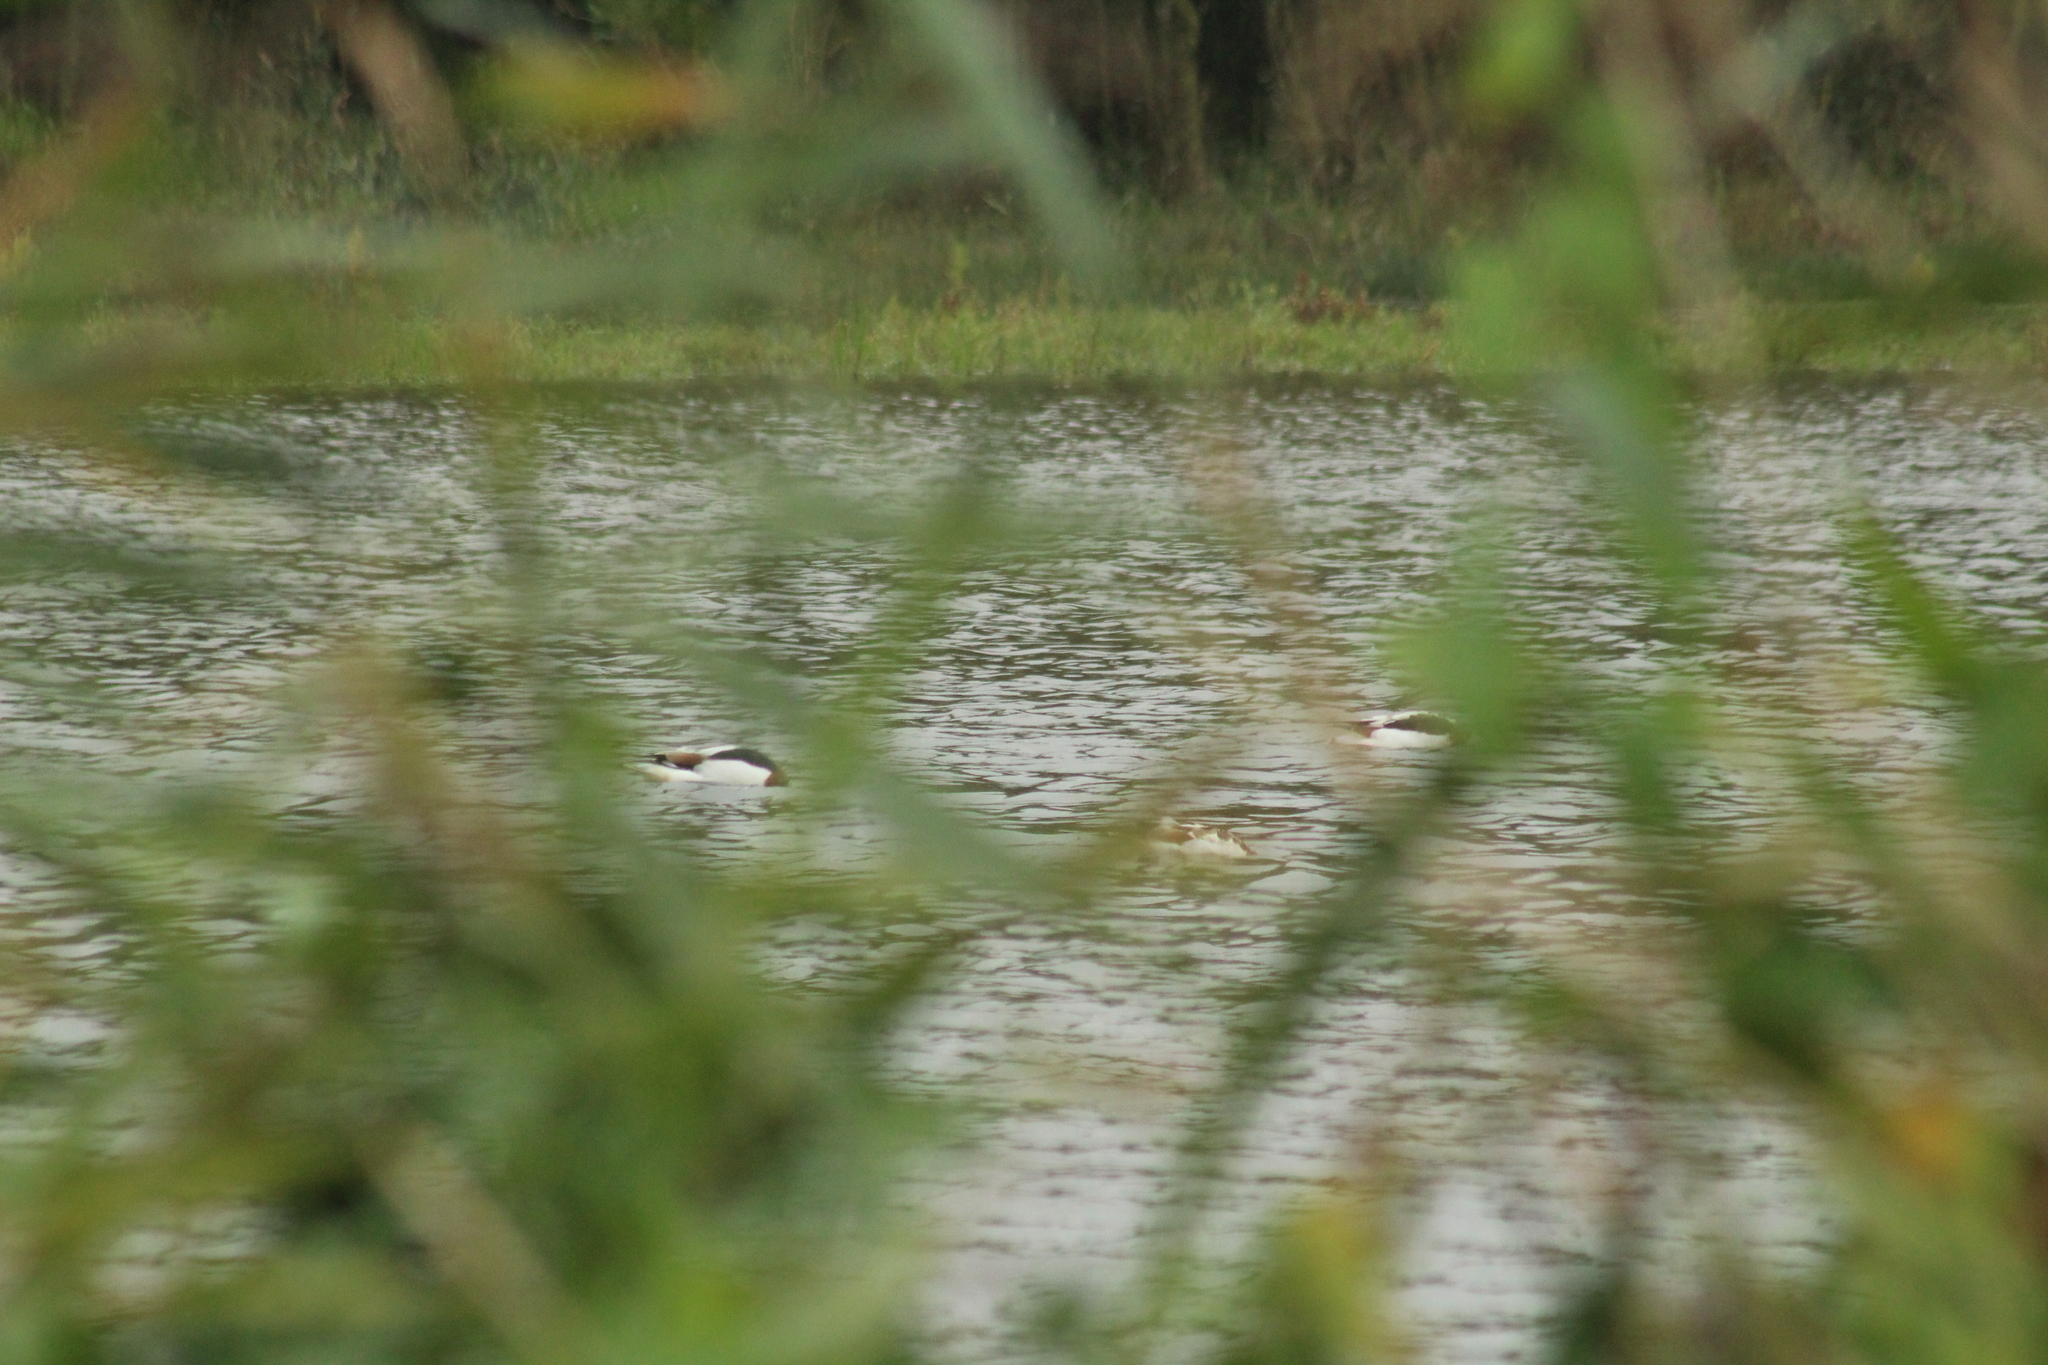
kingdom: Animalia
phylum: Chordata
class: Aves
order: Anseriformes
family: Anatidae
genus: Tadorna
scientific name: Tadorna tadorna
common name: Common shelduck
